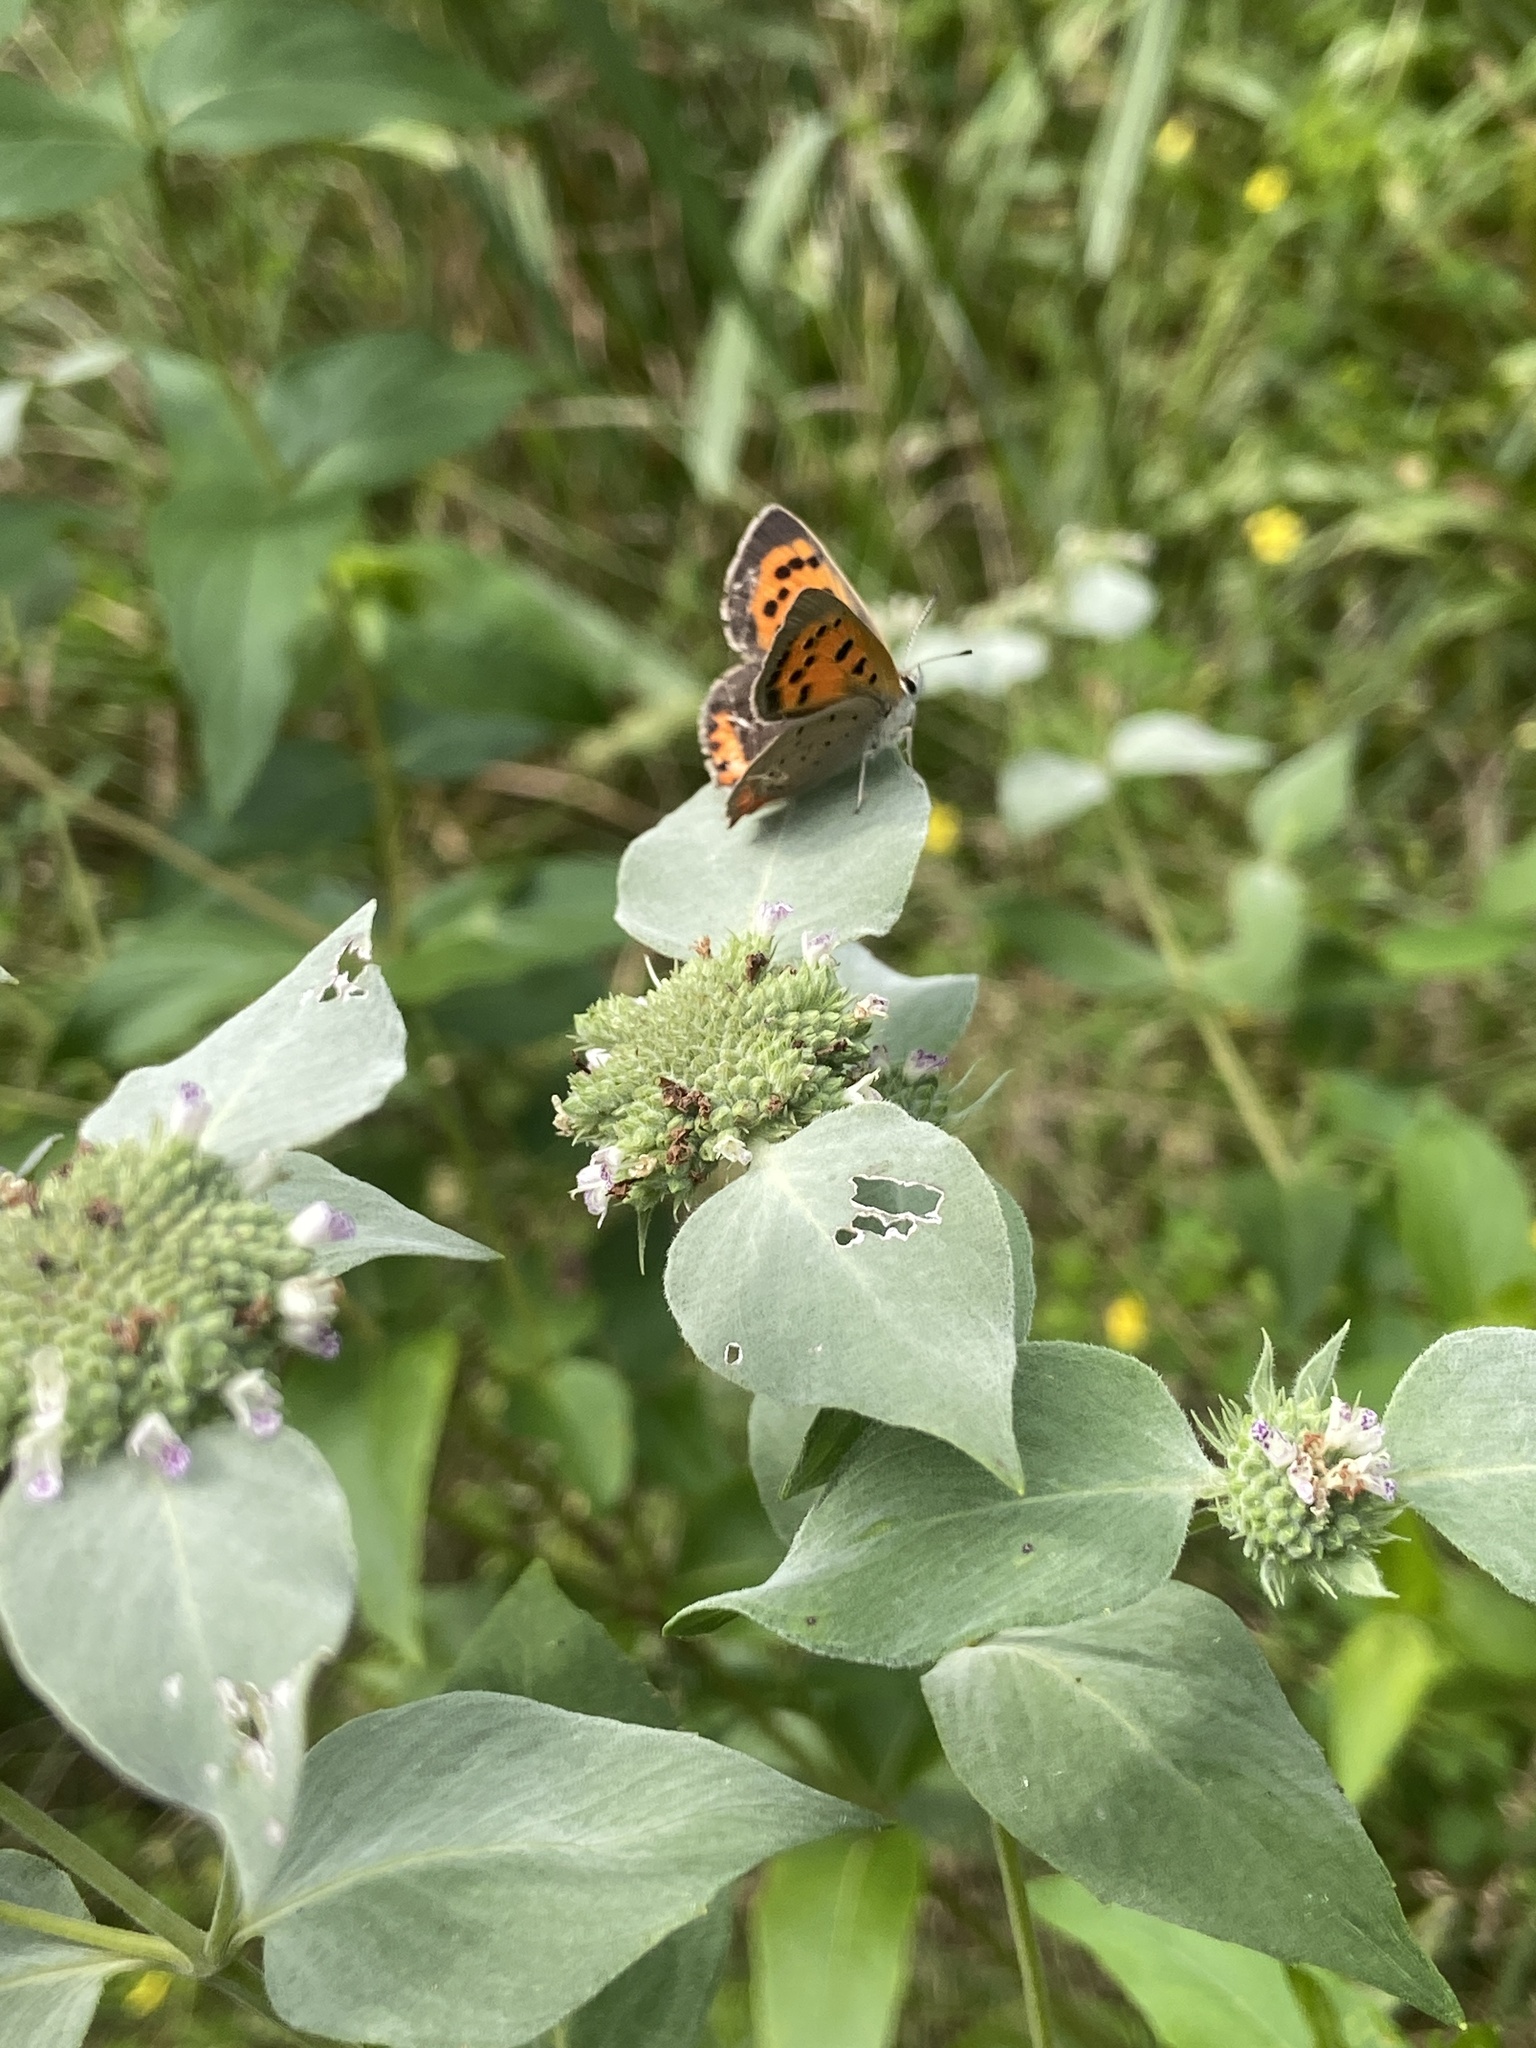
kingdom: Animalia
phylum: Arthropoda
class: Insecta
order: Lepidoptera
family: Lycaenidae
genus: Lycaena
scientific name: Lycaena hypophlaeas
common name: American copper
